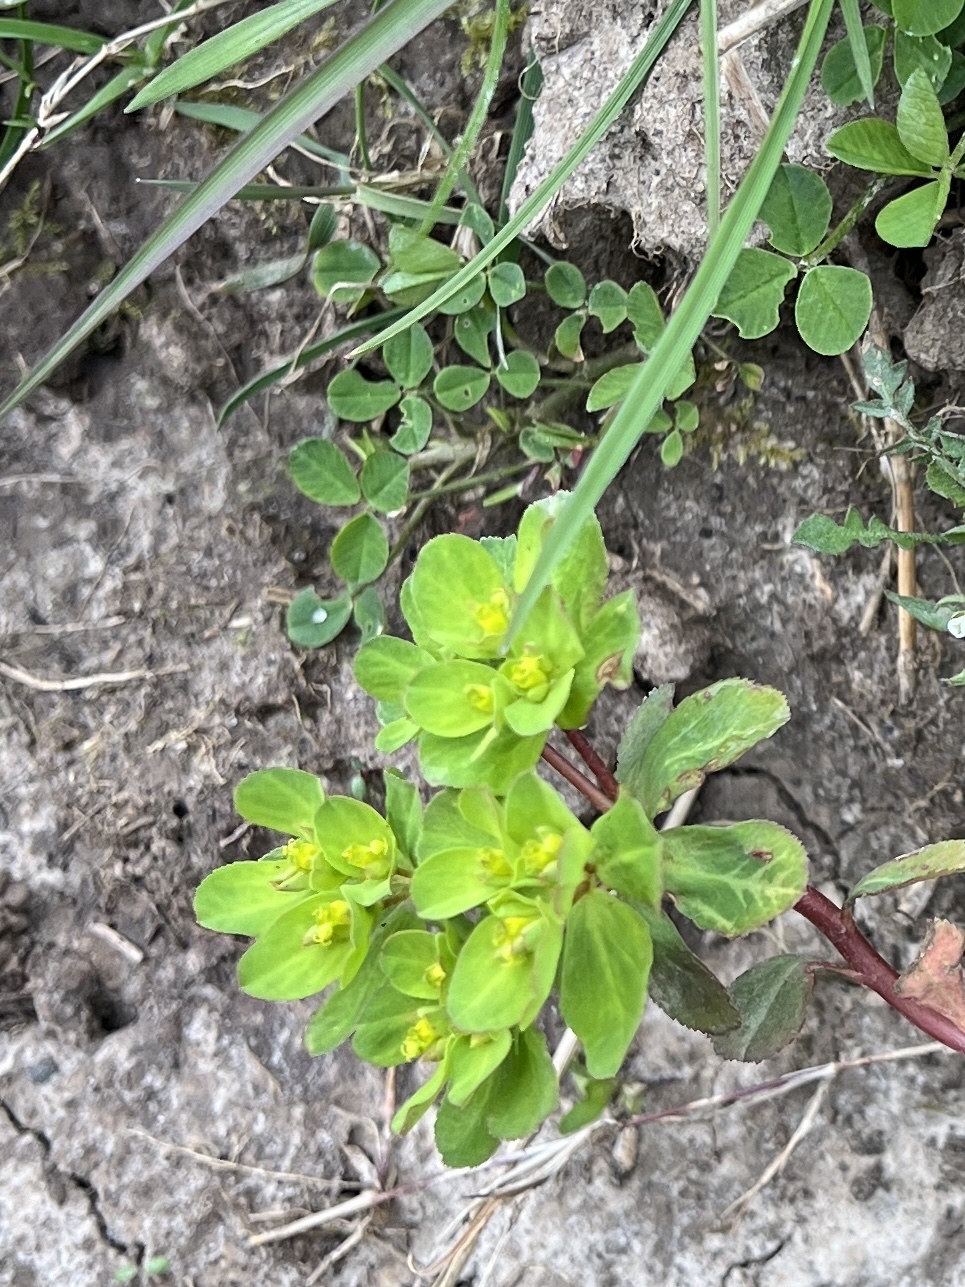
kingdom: Plantae
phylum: Tracheophyta
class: Magnoliopsida
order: Malpighiales
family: Euphorbiaceae
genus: Euphorbia
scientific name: Euphorbia helioscopia
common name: Sun spurge
